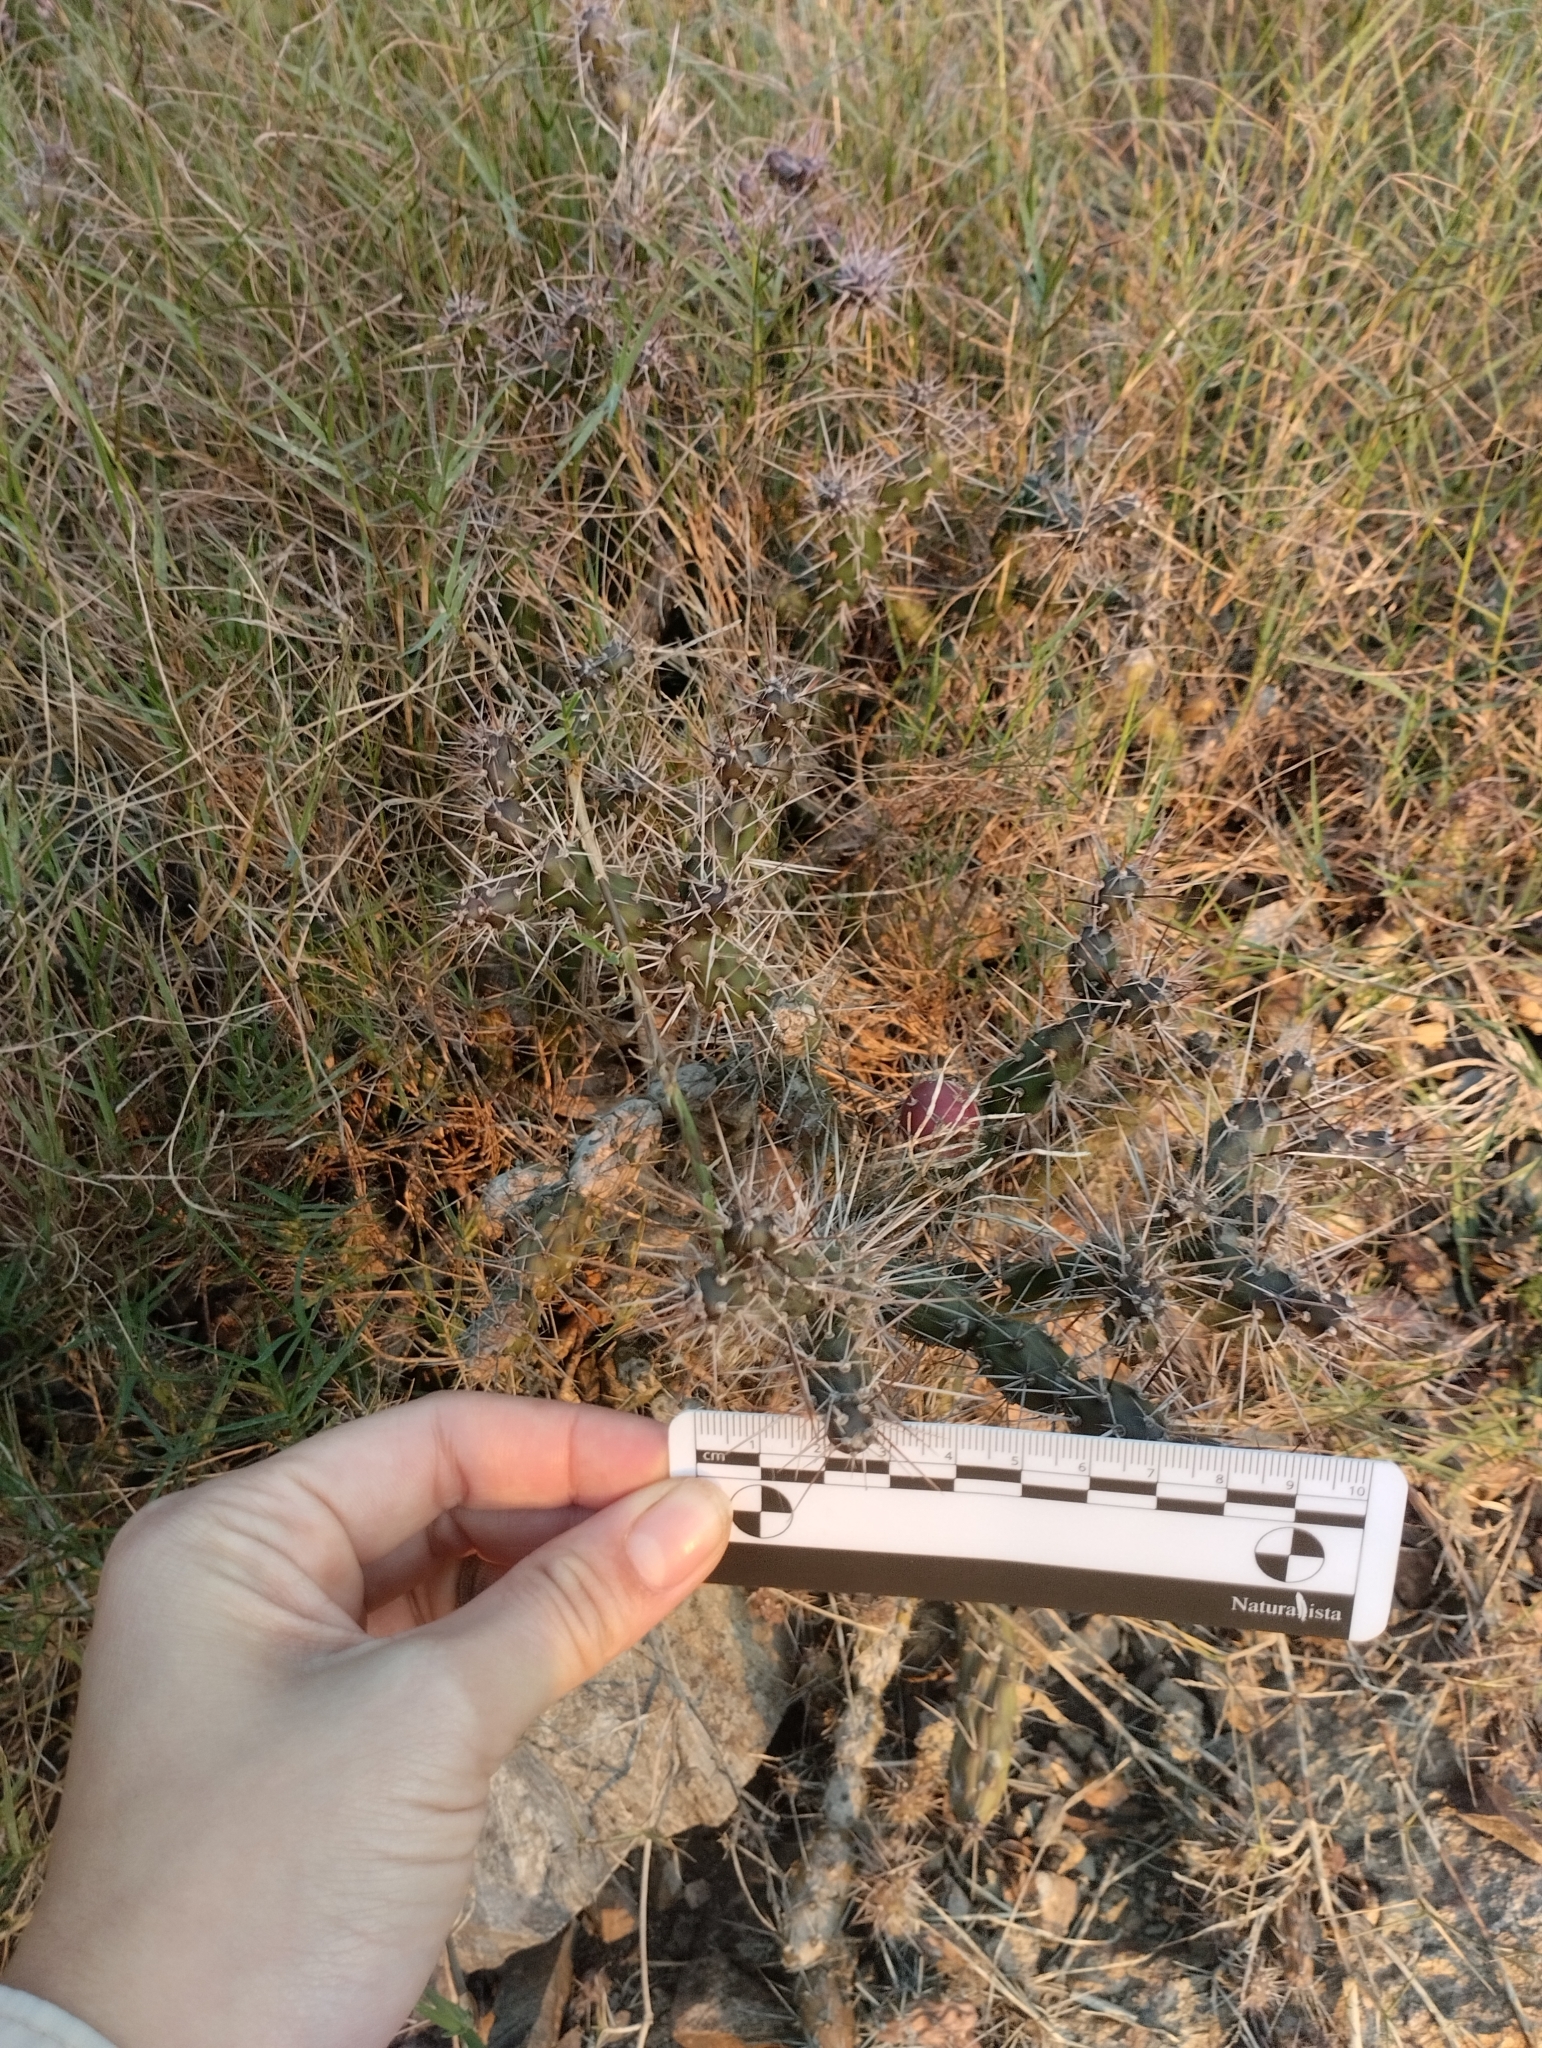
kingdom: Plantae
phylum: Tracheophyta
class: Magnoliopsida
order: Caryophyllales
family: Cactaceae
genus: Opuntia
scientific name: Opuntia aurantiaca
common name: Jointed pricklypear
